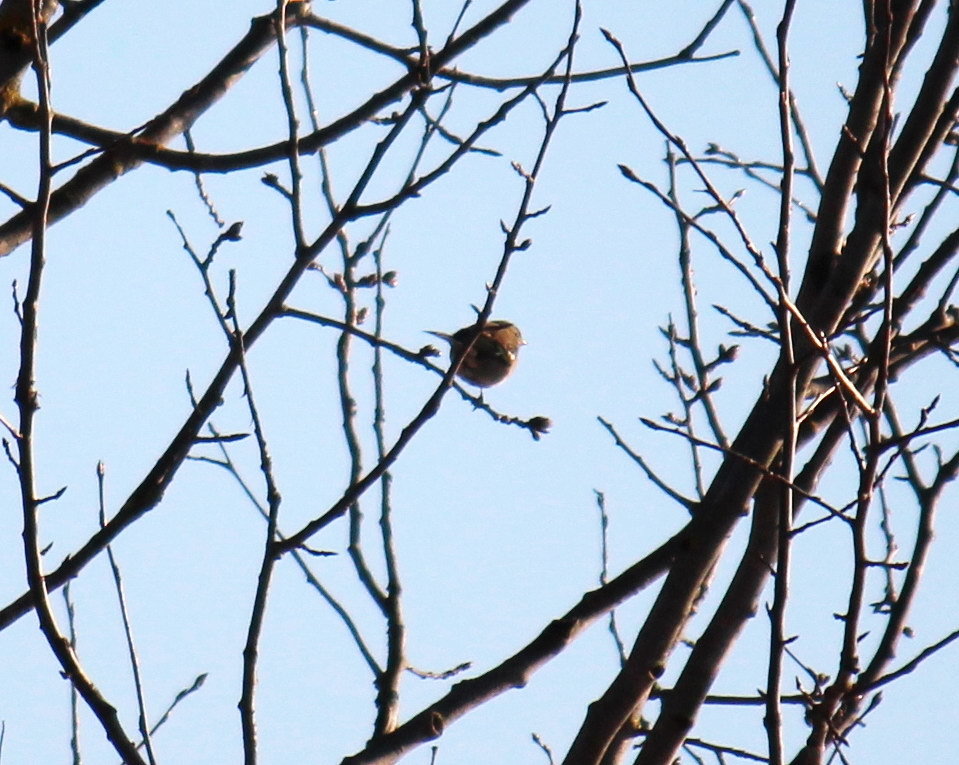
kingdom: Animalia
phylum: Chordata
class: Aves
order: Passeriformes
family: Fringillidae
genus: Fringilla
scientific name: Fringilla coelebs
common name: Common chaffinch
